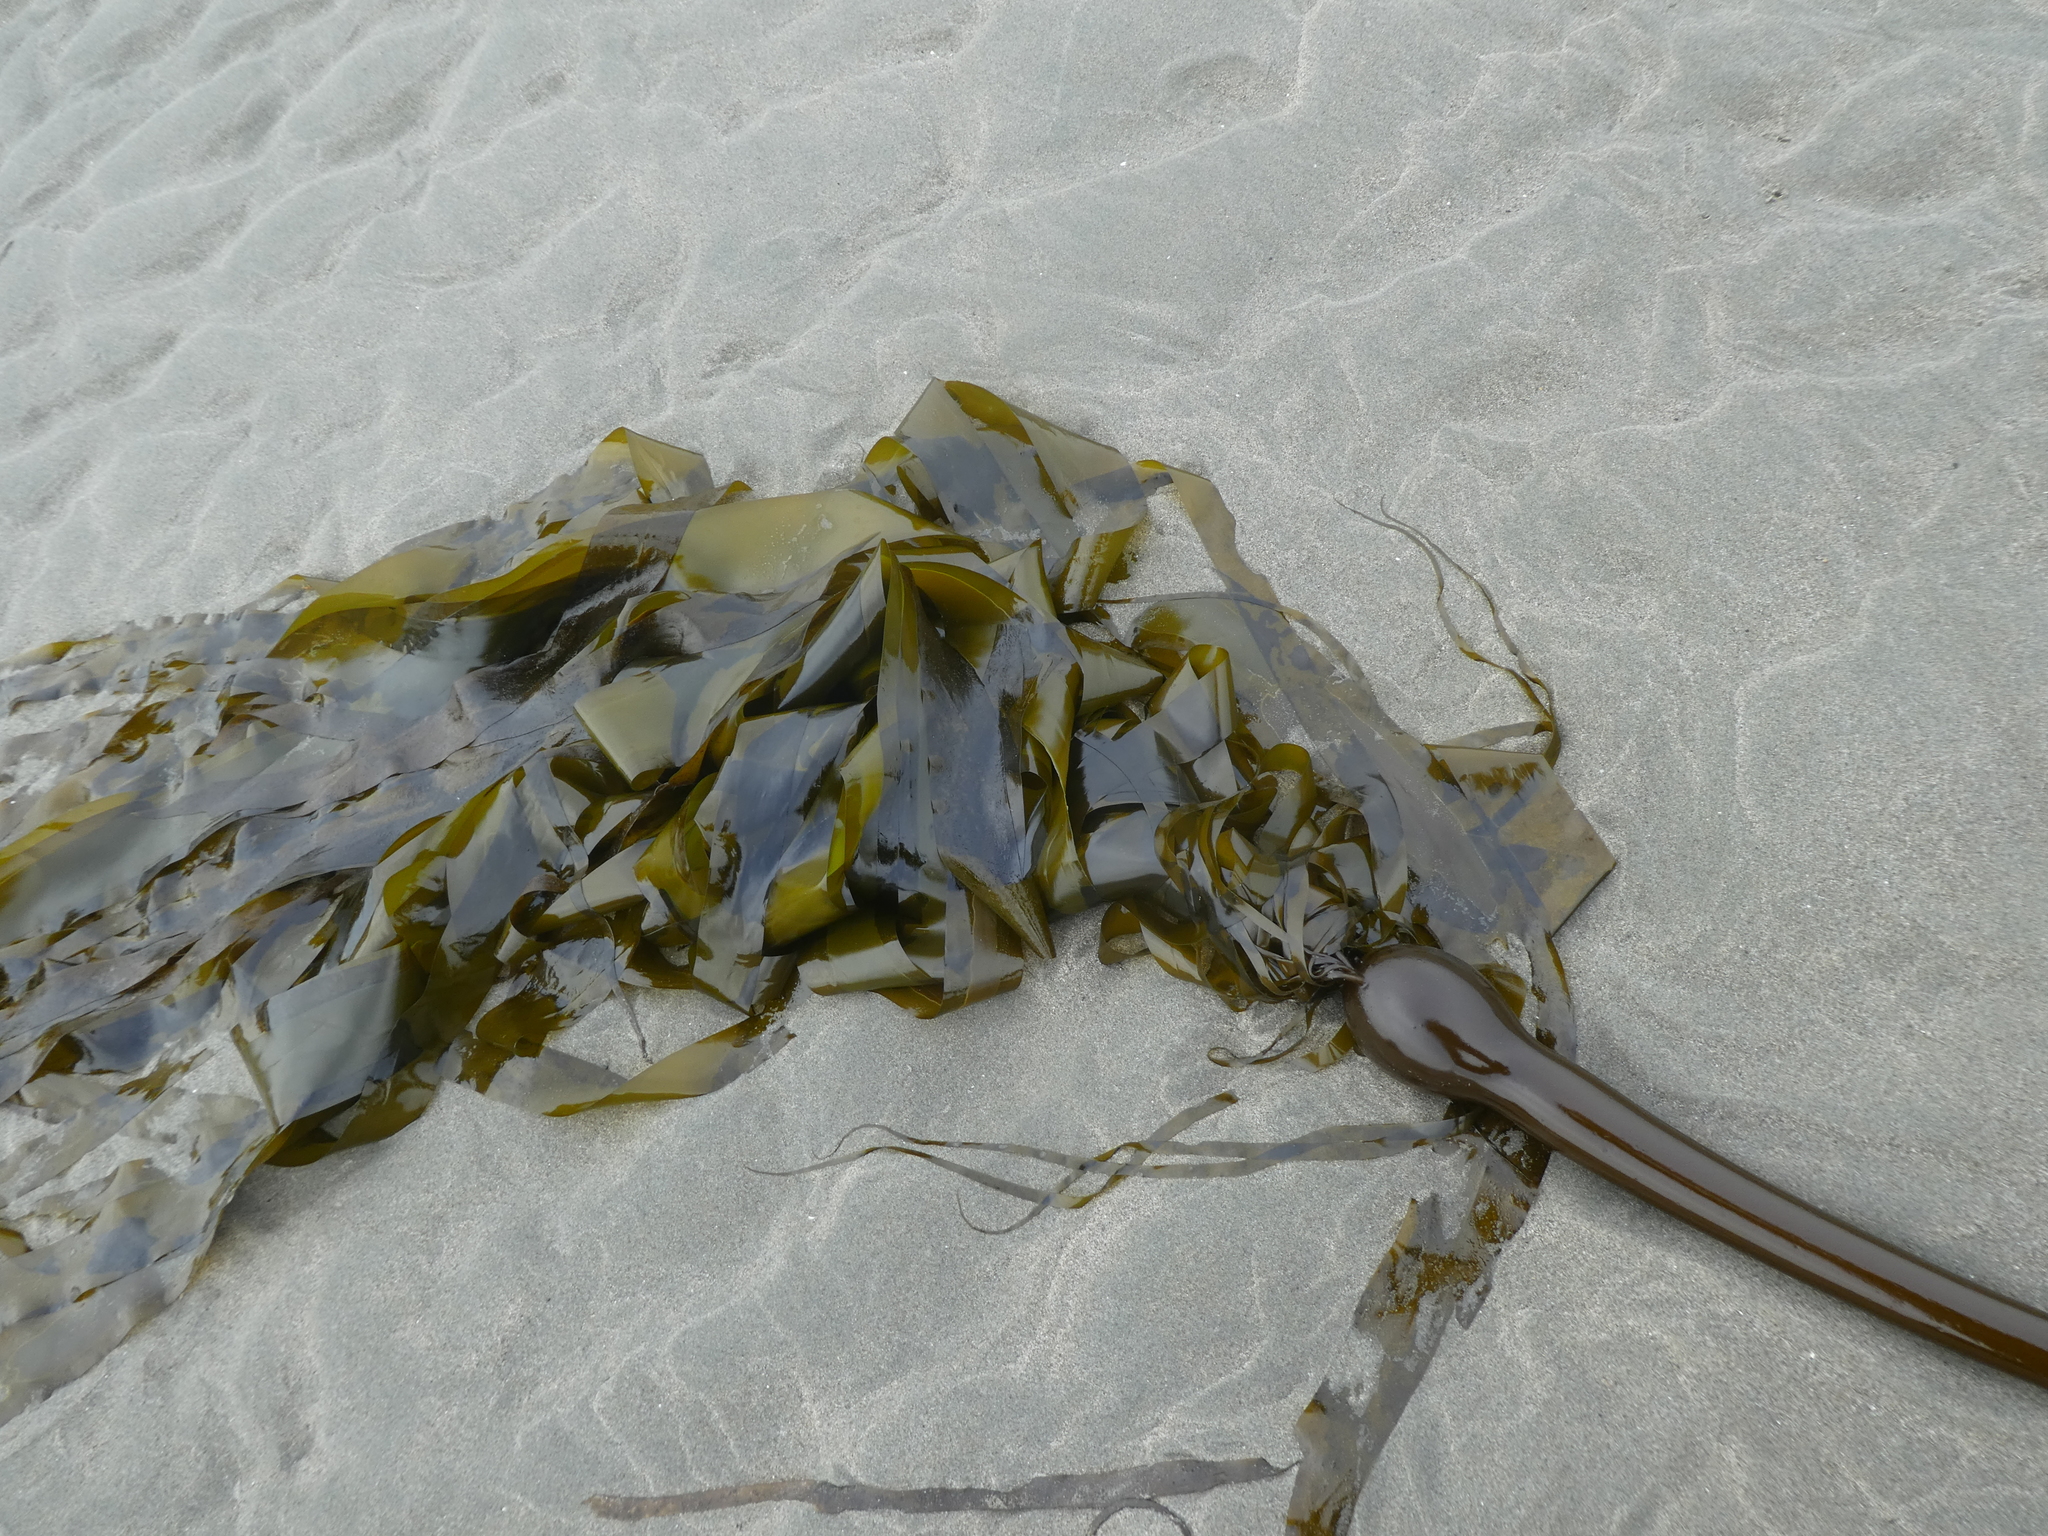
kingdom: Chromista
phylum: Ochrophyta
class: Phaeophyceae
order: Laminariales
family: Laminariaceae
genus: Nereocystis
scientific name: Nereocystis luetkeana
